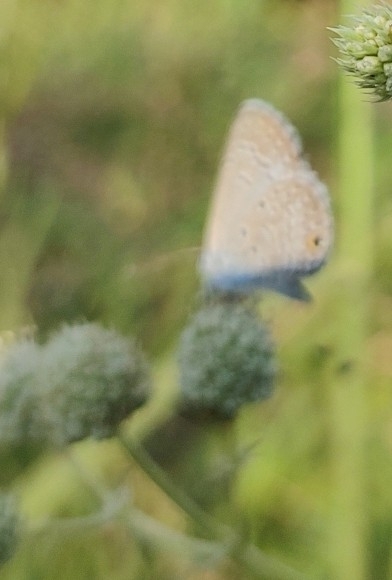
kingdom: Animalia
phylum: Arthropoda
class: Insecta
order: Lepidoptera
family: Lycaenidae
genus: Hemiargus
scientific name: Hemiargus hanno
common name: Common blue
